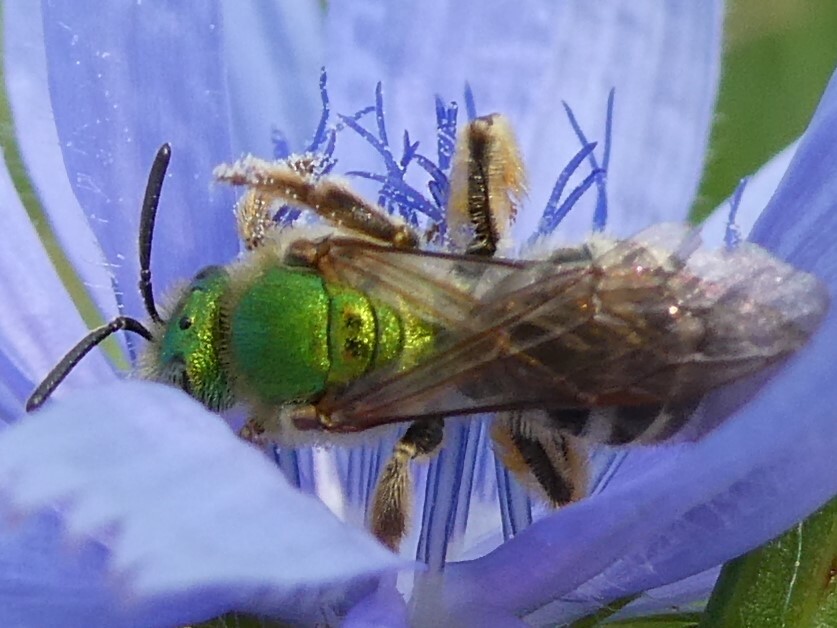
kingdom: Animalia
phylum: Arthropoda
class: Insecta
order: Hymenoptera
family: Halictidae
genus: Agapostemon
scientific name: Agapostemon virescens
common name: Bicolored striped sweat bee
